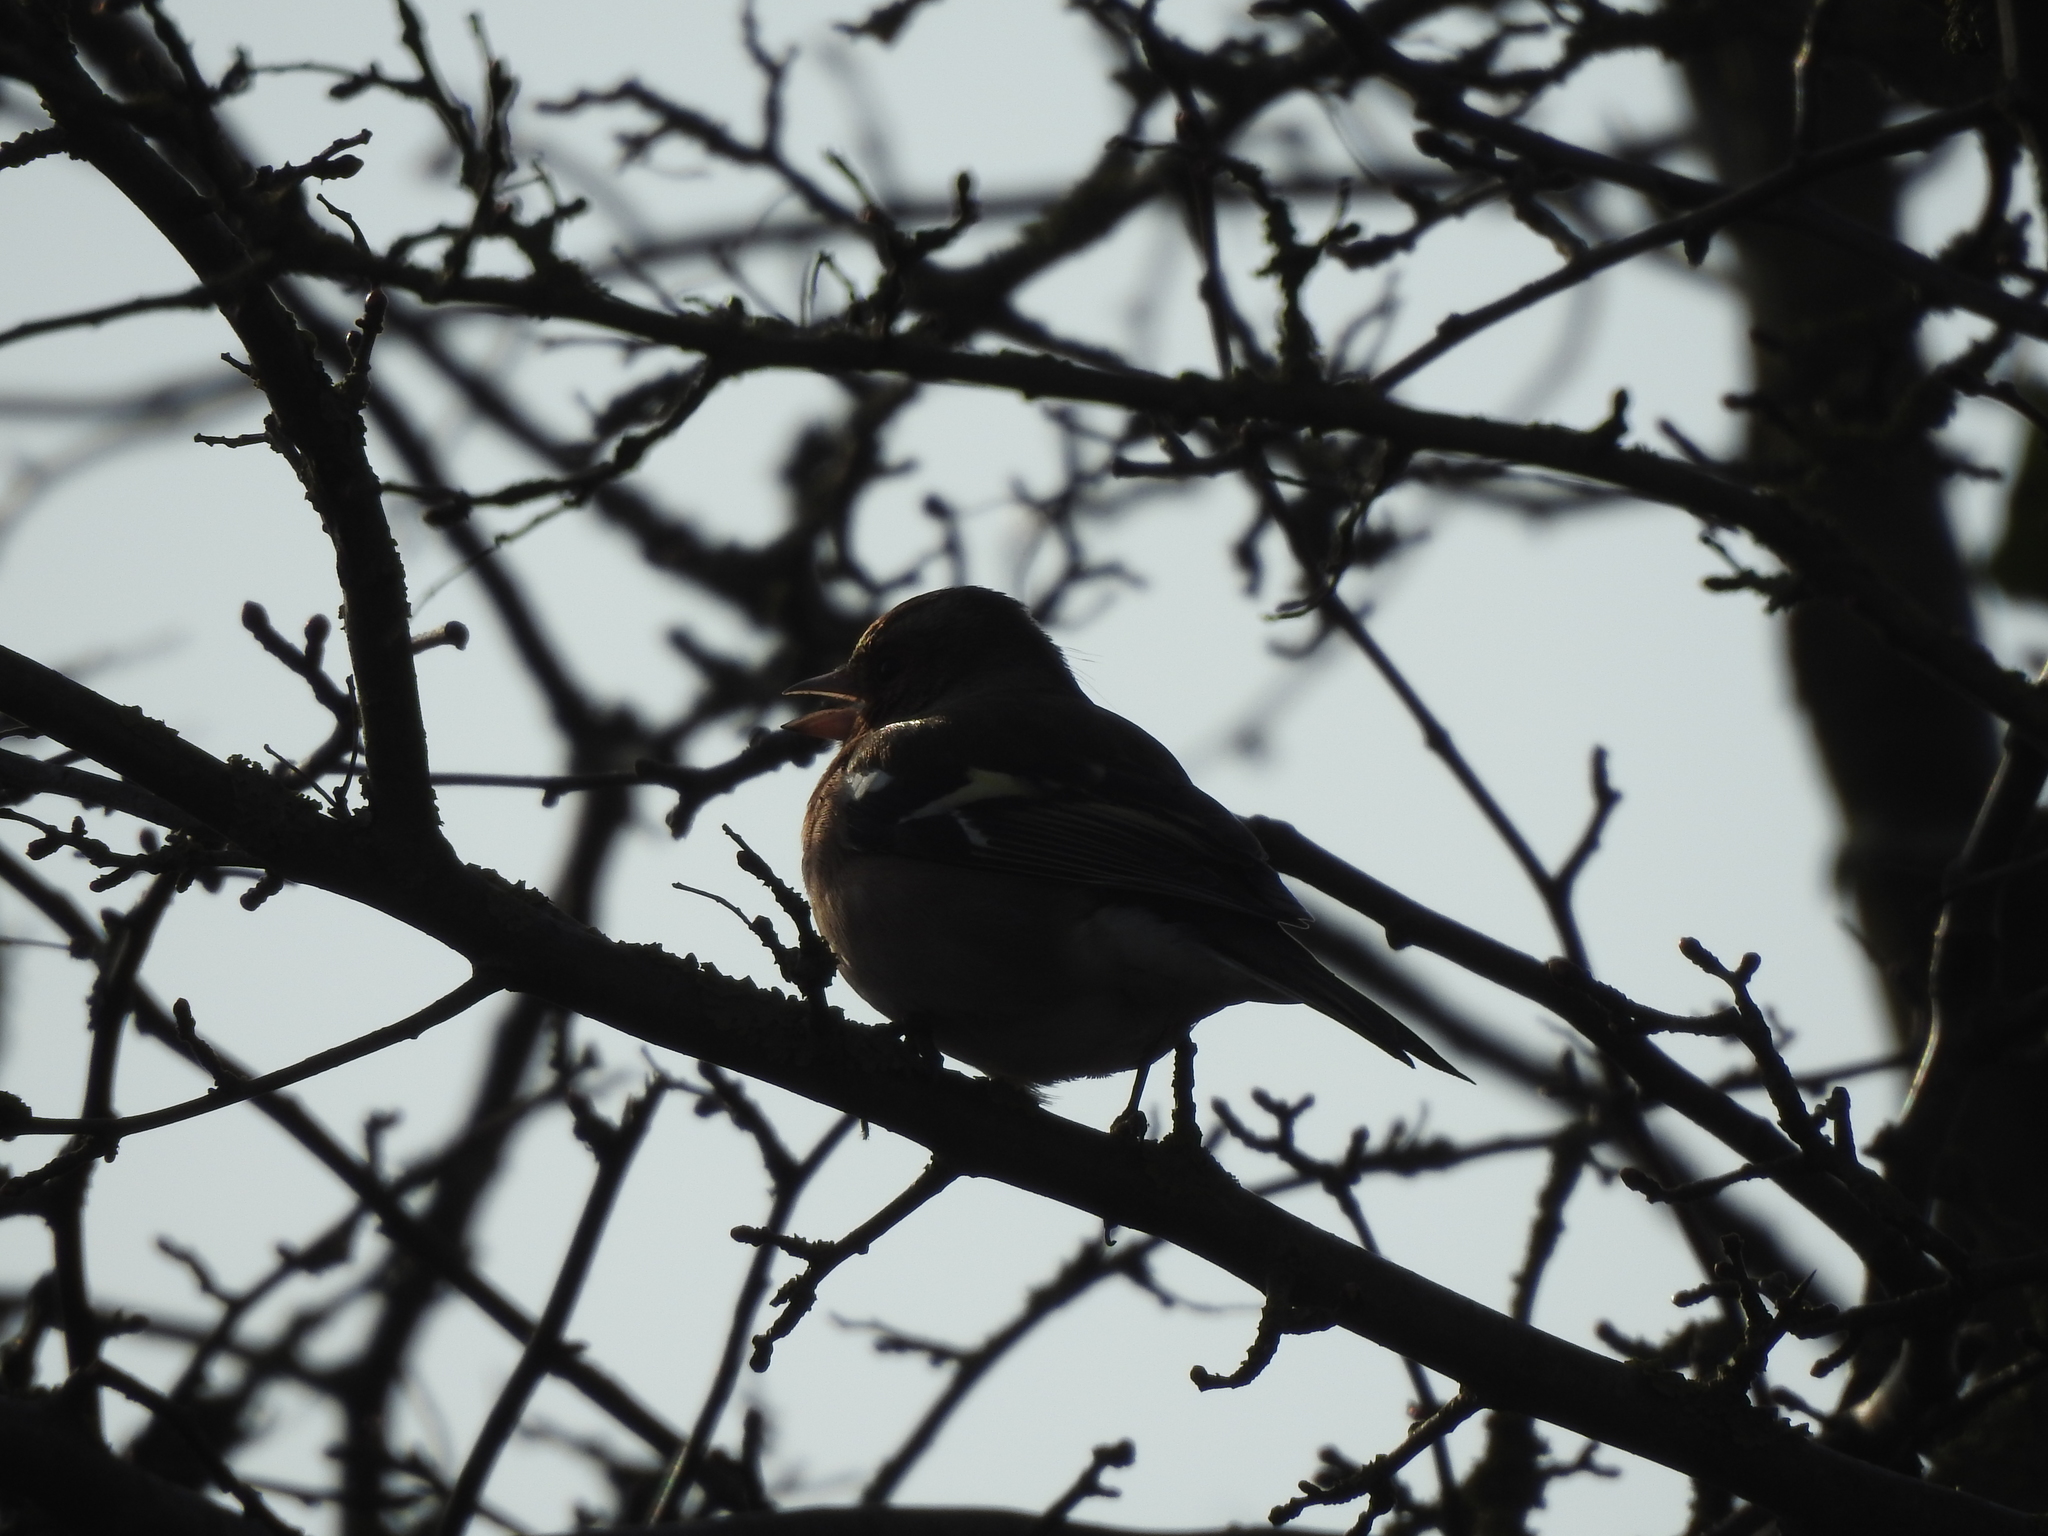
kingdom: Animalia
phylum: Chordata
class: Aves
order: Passeriformes
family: Fringillidae
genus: Fringilla
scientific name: Fringilla coelebs
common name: Common chaffinch
